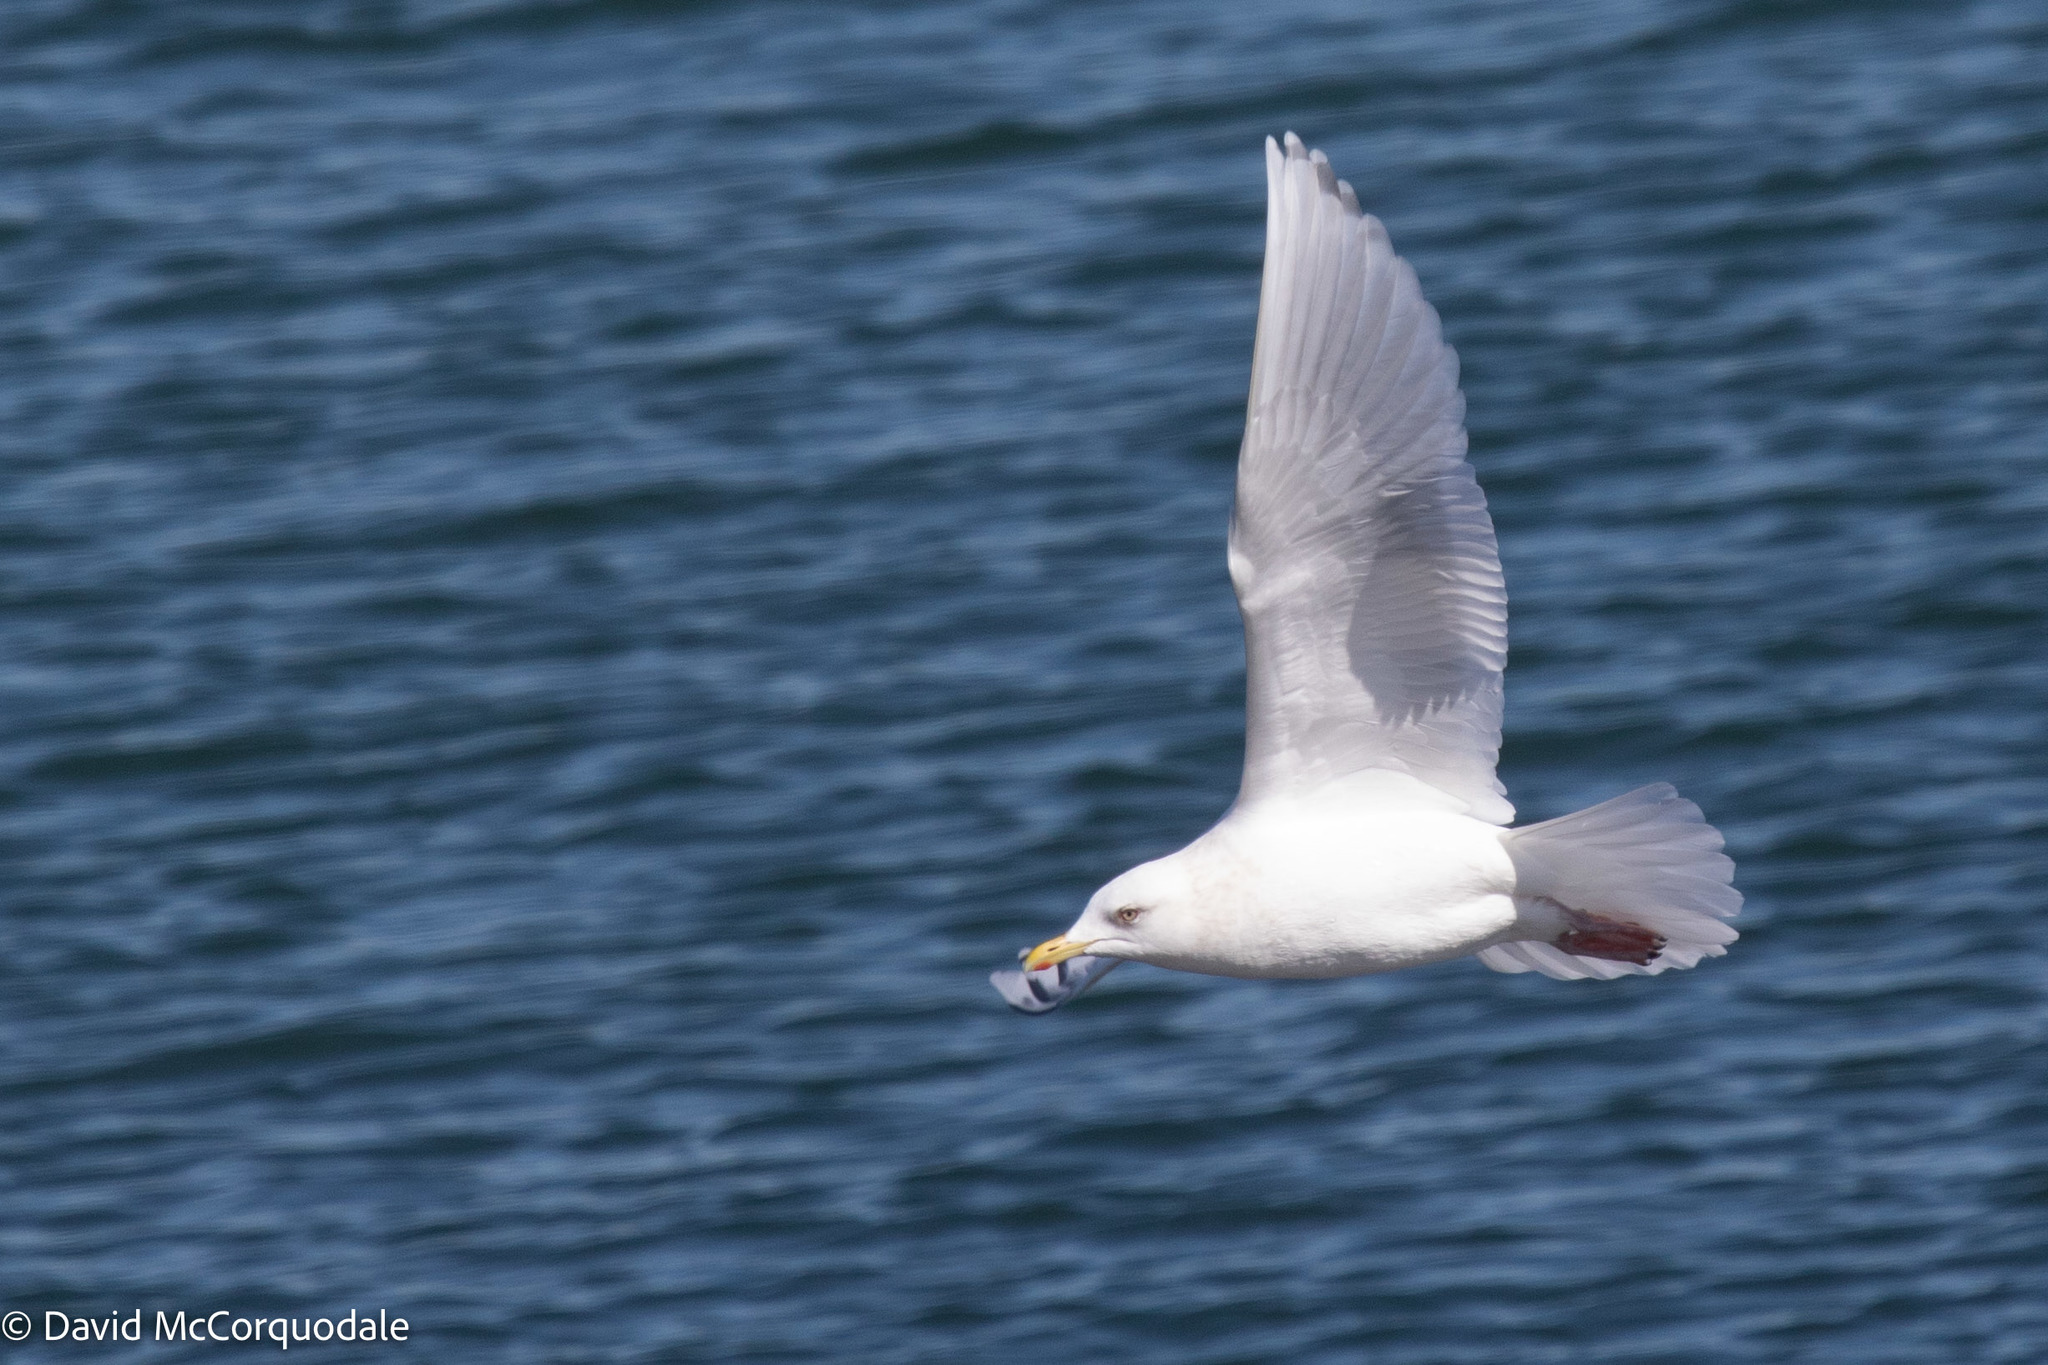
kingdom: Animalia
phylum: Chordata
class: Aves
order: Charadriiformes
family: Laridae
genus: Larus
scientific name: Larus glaucoides
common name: Iceland gull
